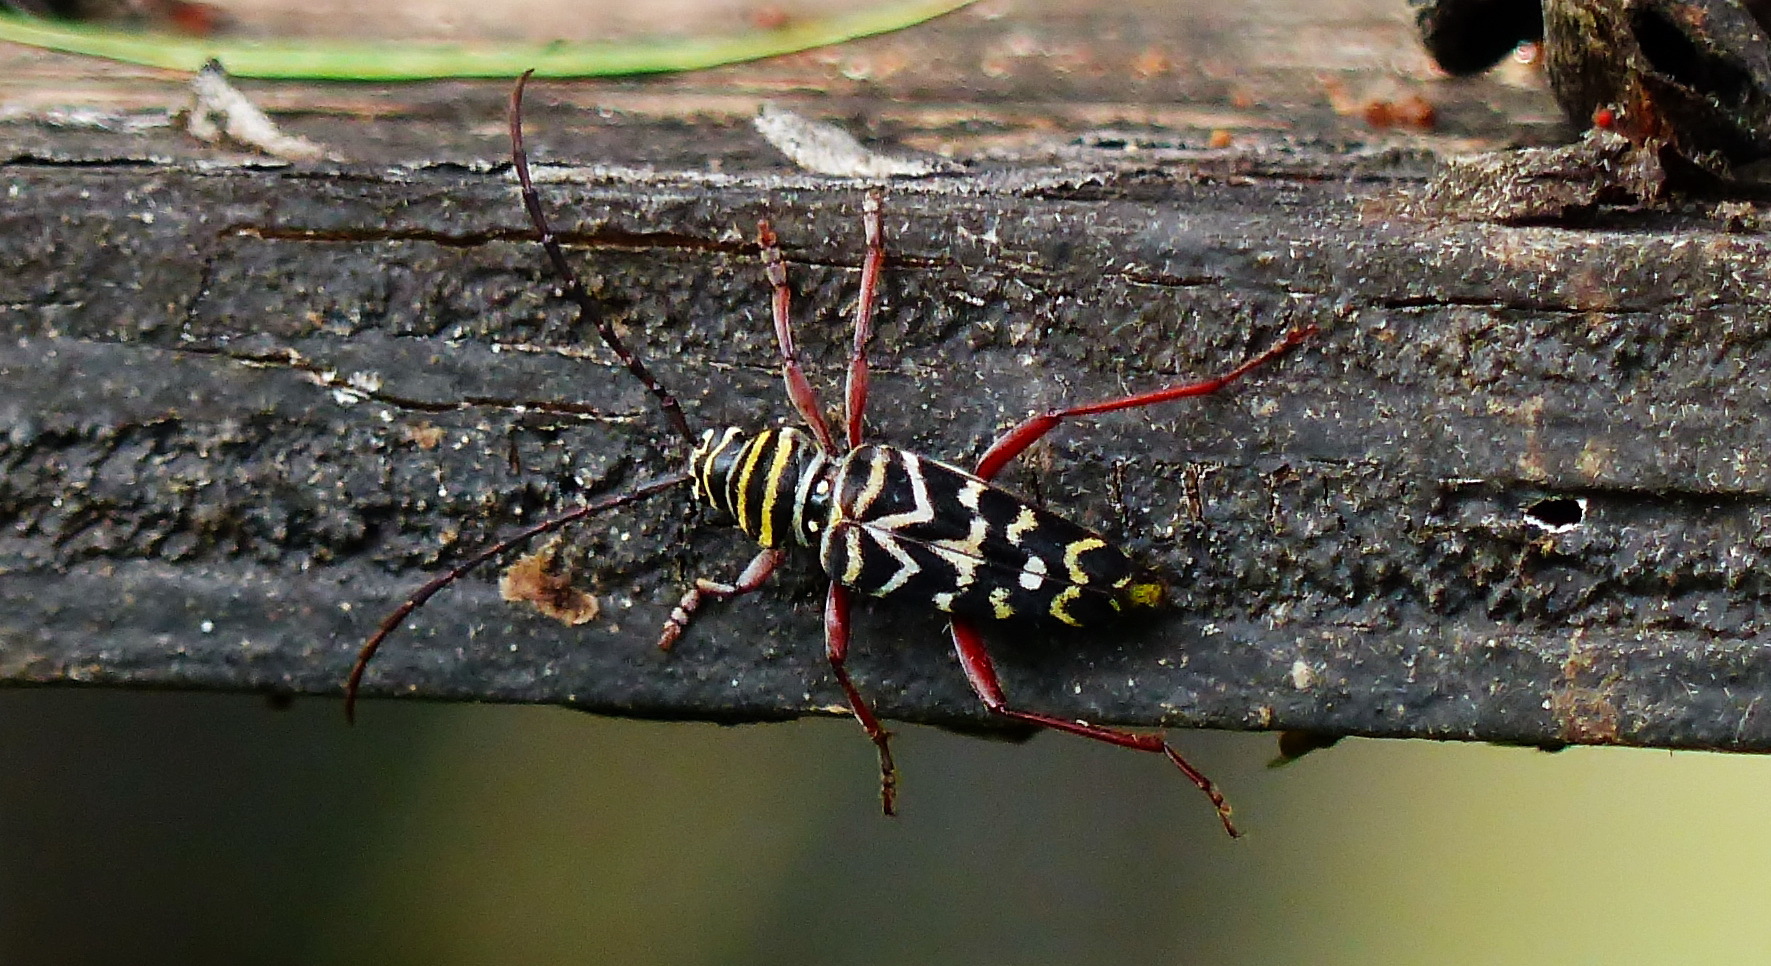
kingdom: Animalia
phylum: Arthropoda
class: Insecta
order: Coleoptera
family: Cerambycidae
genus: Placosternus
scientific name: Placosternus difficilis
